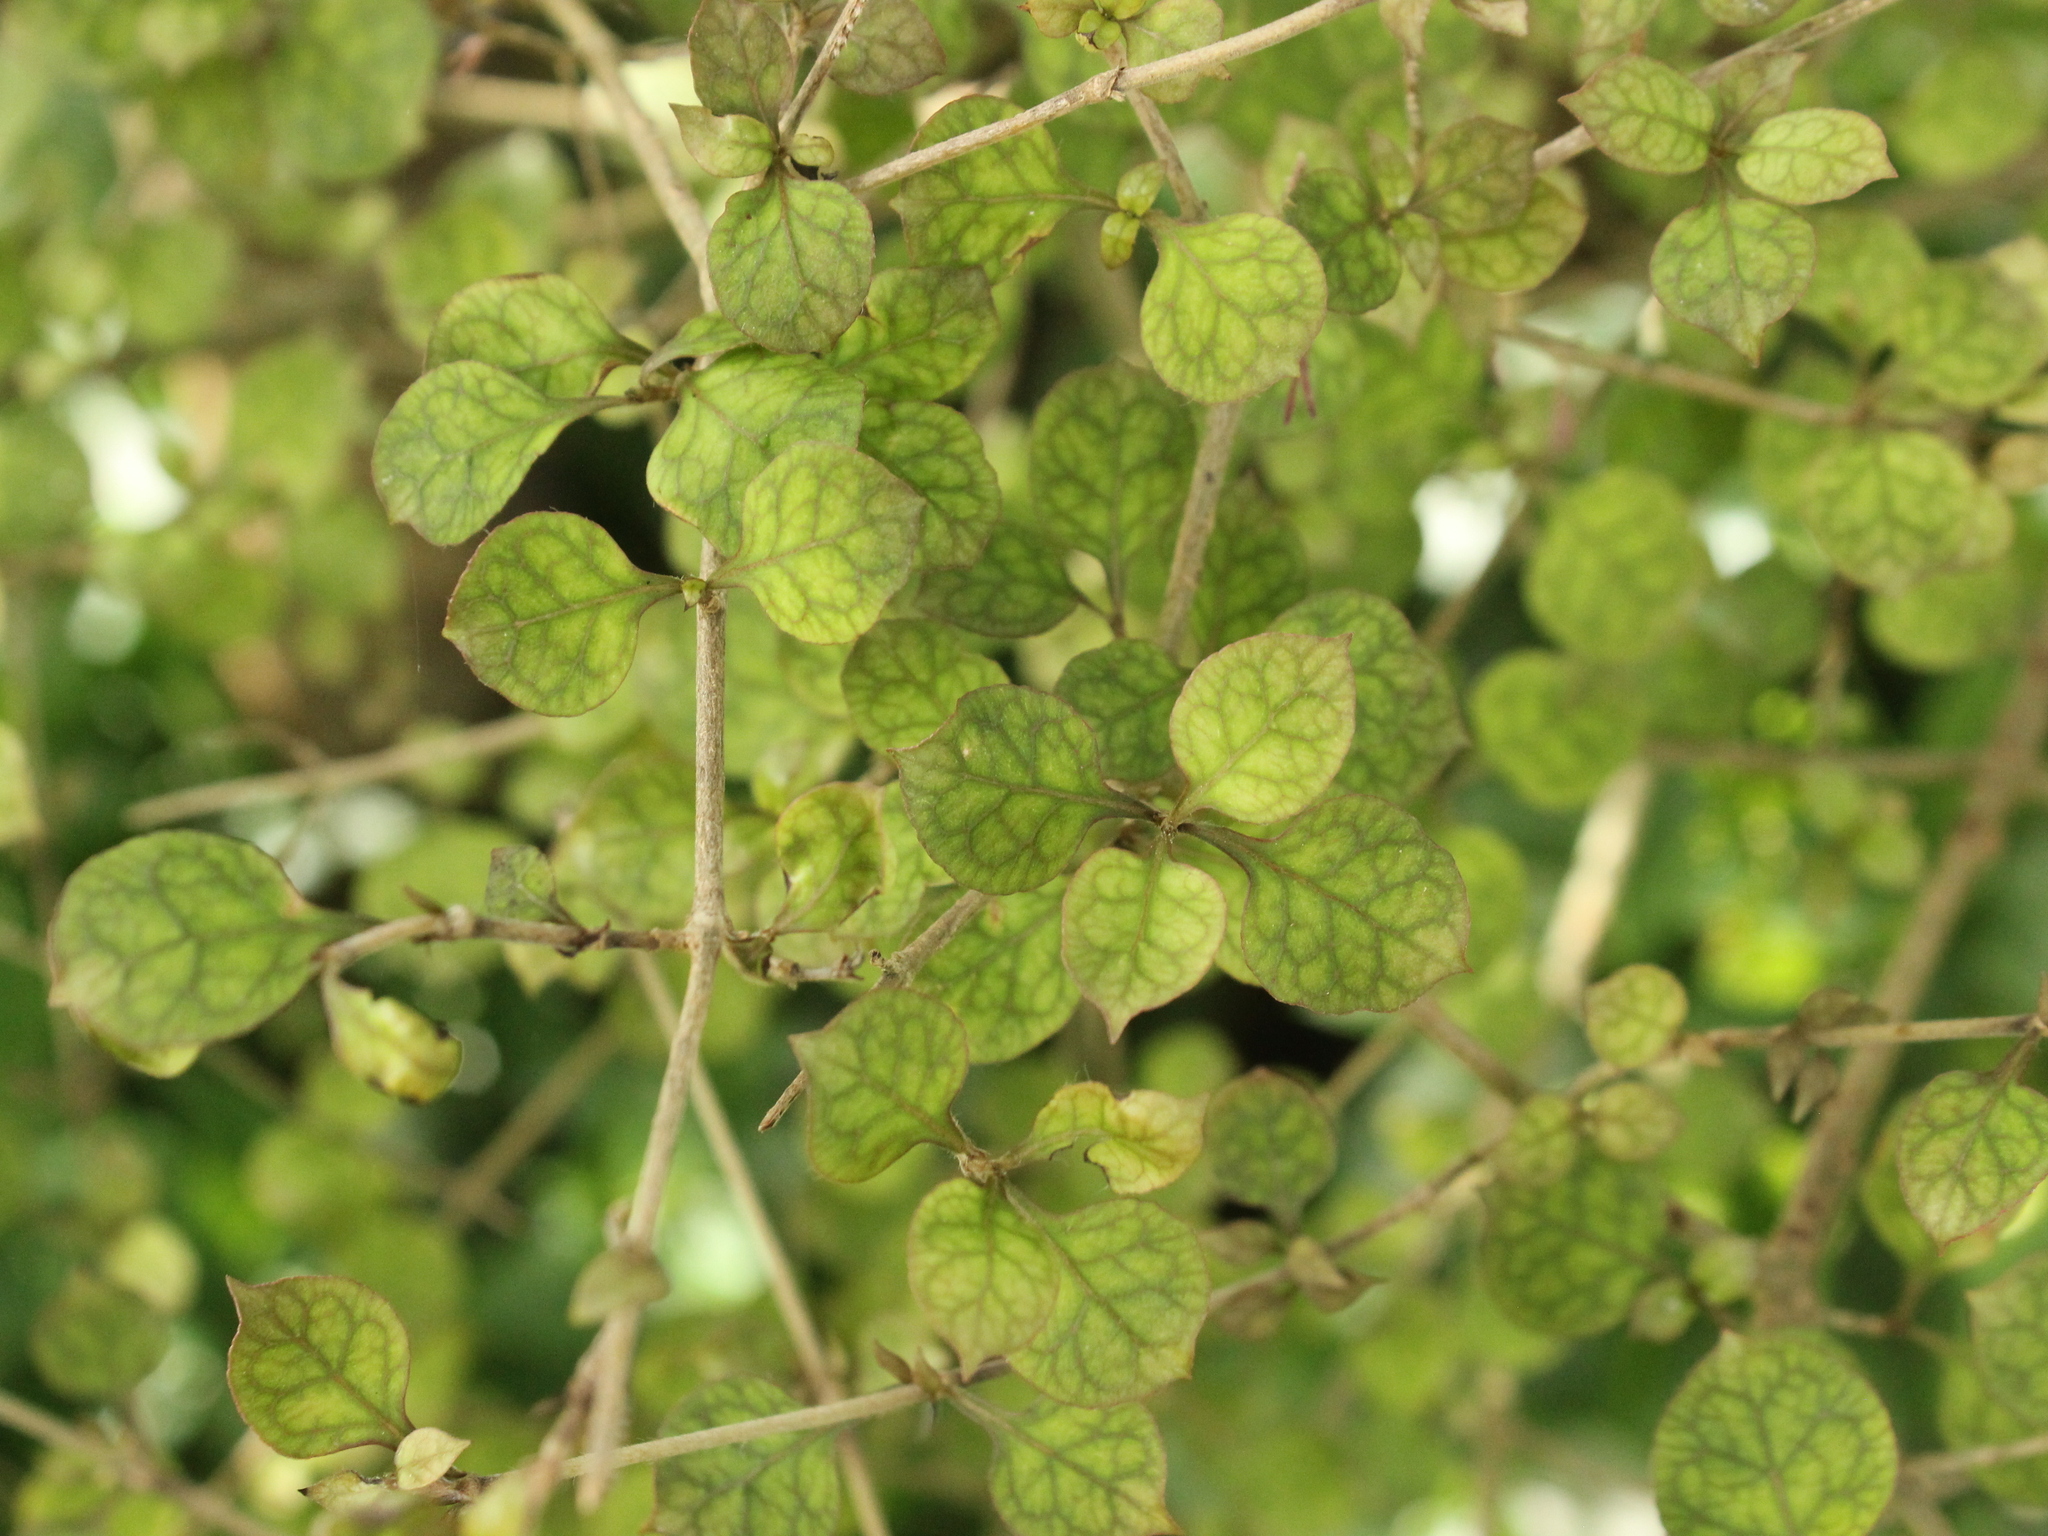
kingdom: Plantae
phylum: Tracheophyta
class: Magnoliopsida
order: Gentianales
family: Rubiaceae
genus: Coprosma
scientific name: Coprosma areolata
